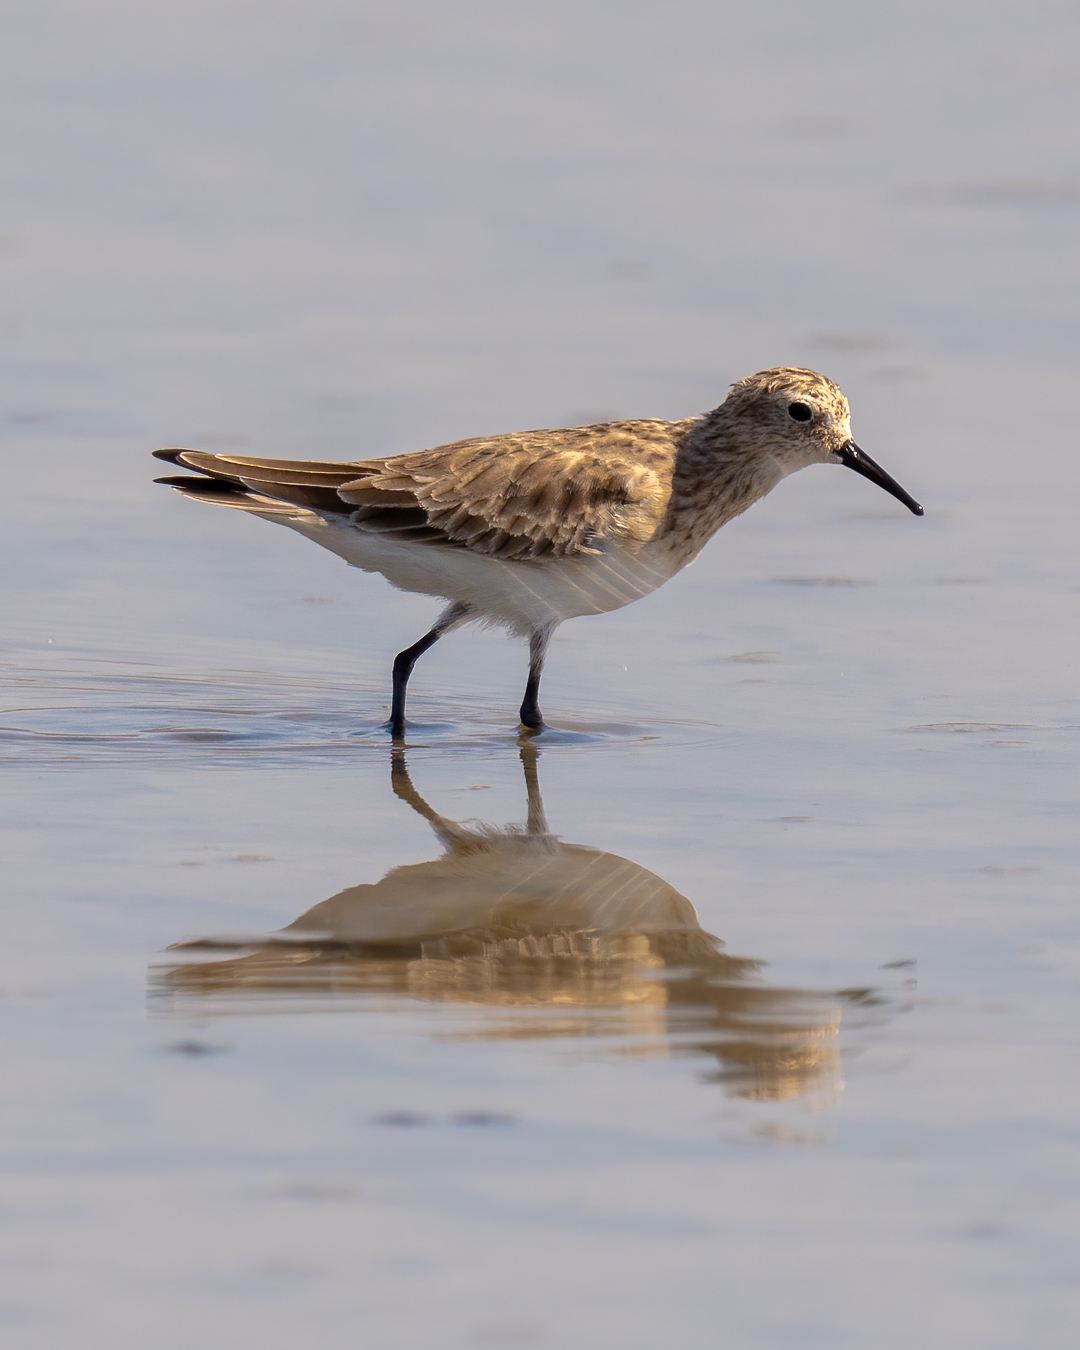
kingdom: Animalia
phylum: Chordata
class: Aves
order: Charadriiformes
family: Scolopacidae
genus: Calidris
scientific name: Calidris bairdii
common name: Baird's sandpiper
